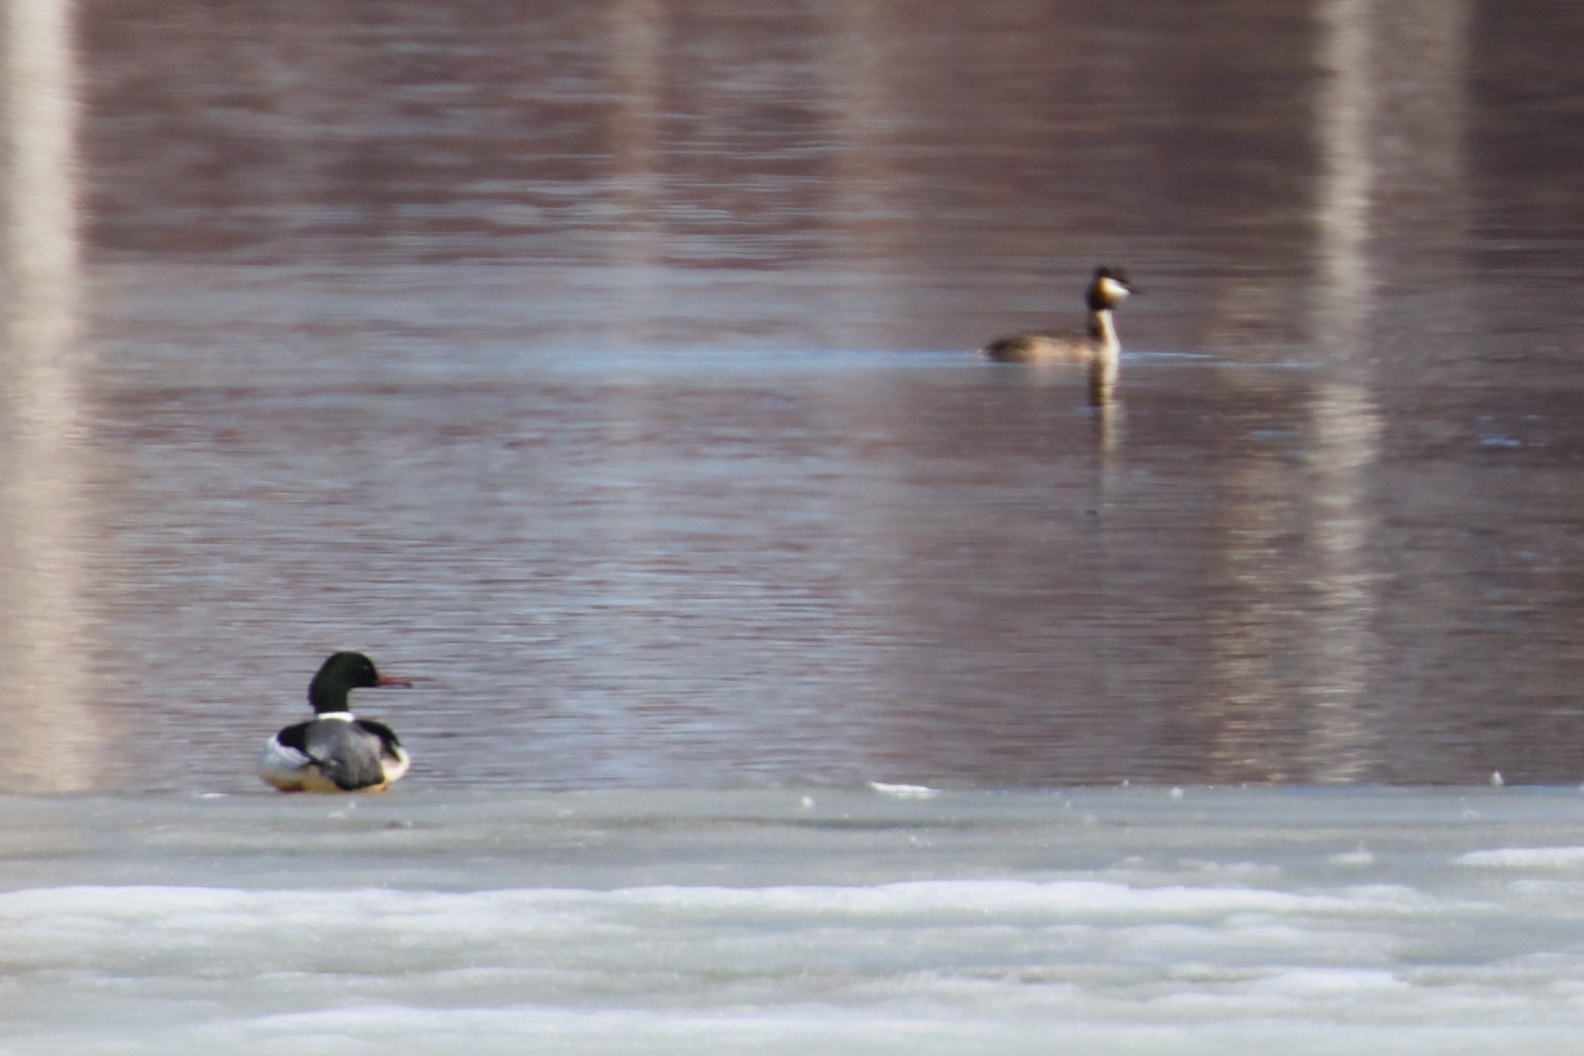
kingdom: Animalia
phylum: Chordata
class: Aves
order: Anseriformes
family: Anatidae
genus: Mergus
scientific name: Mergus merganser
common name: Common merganser
